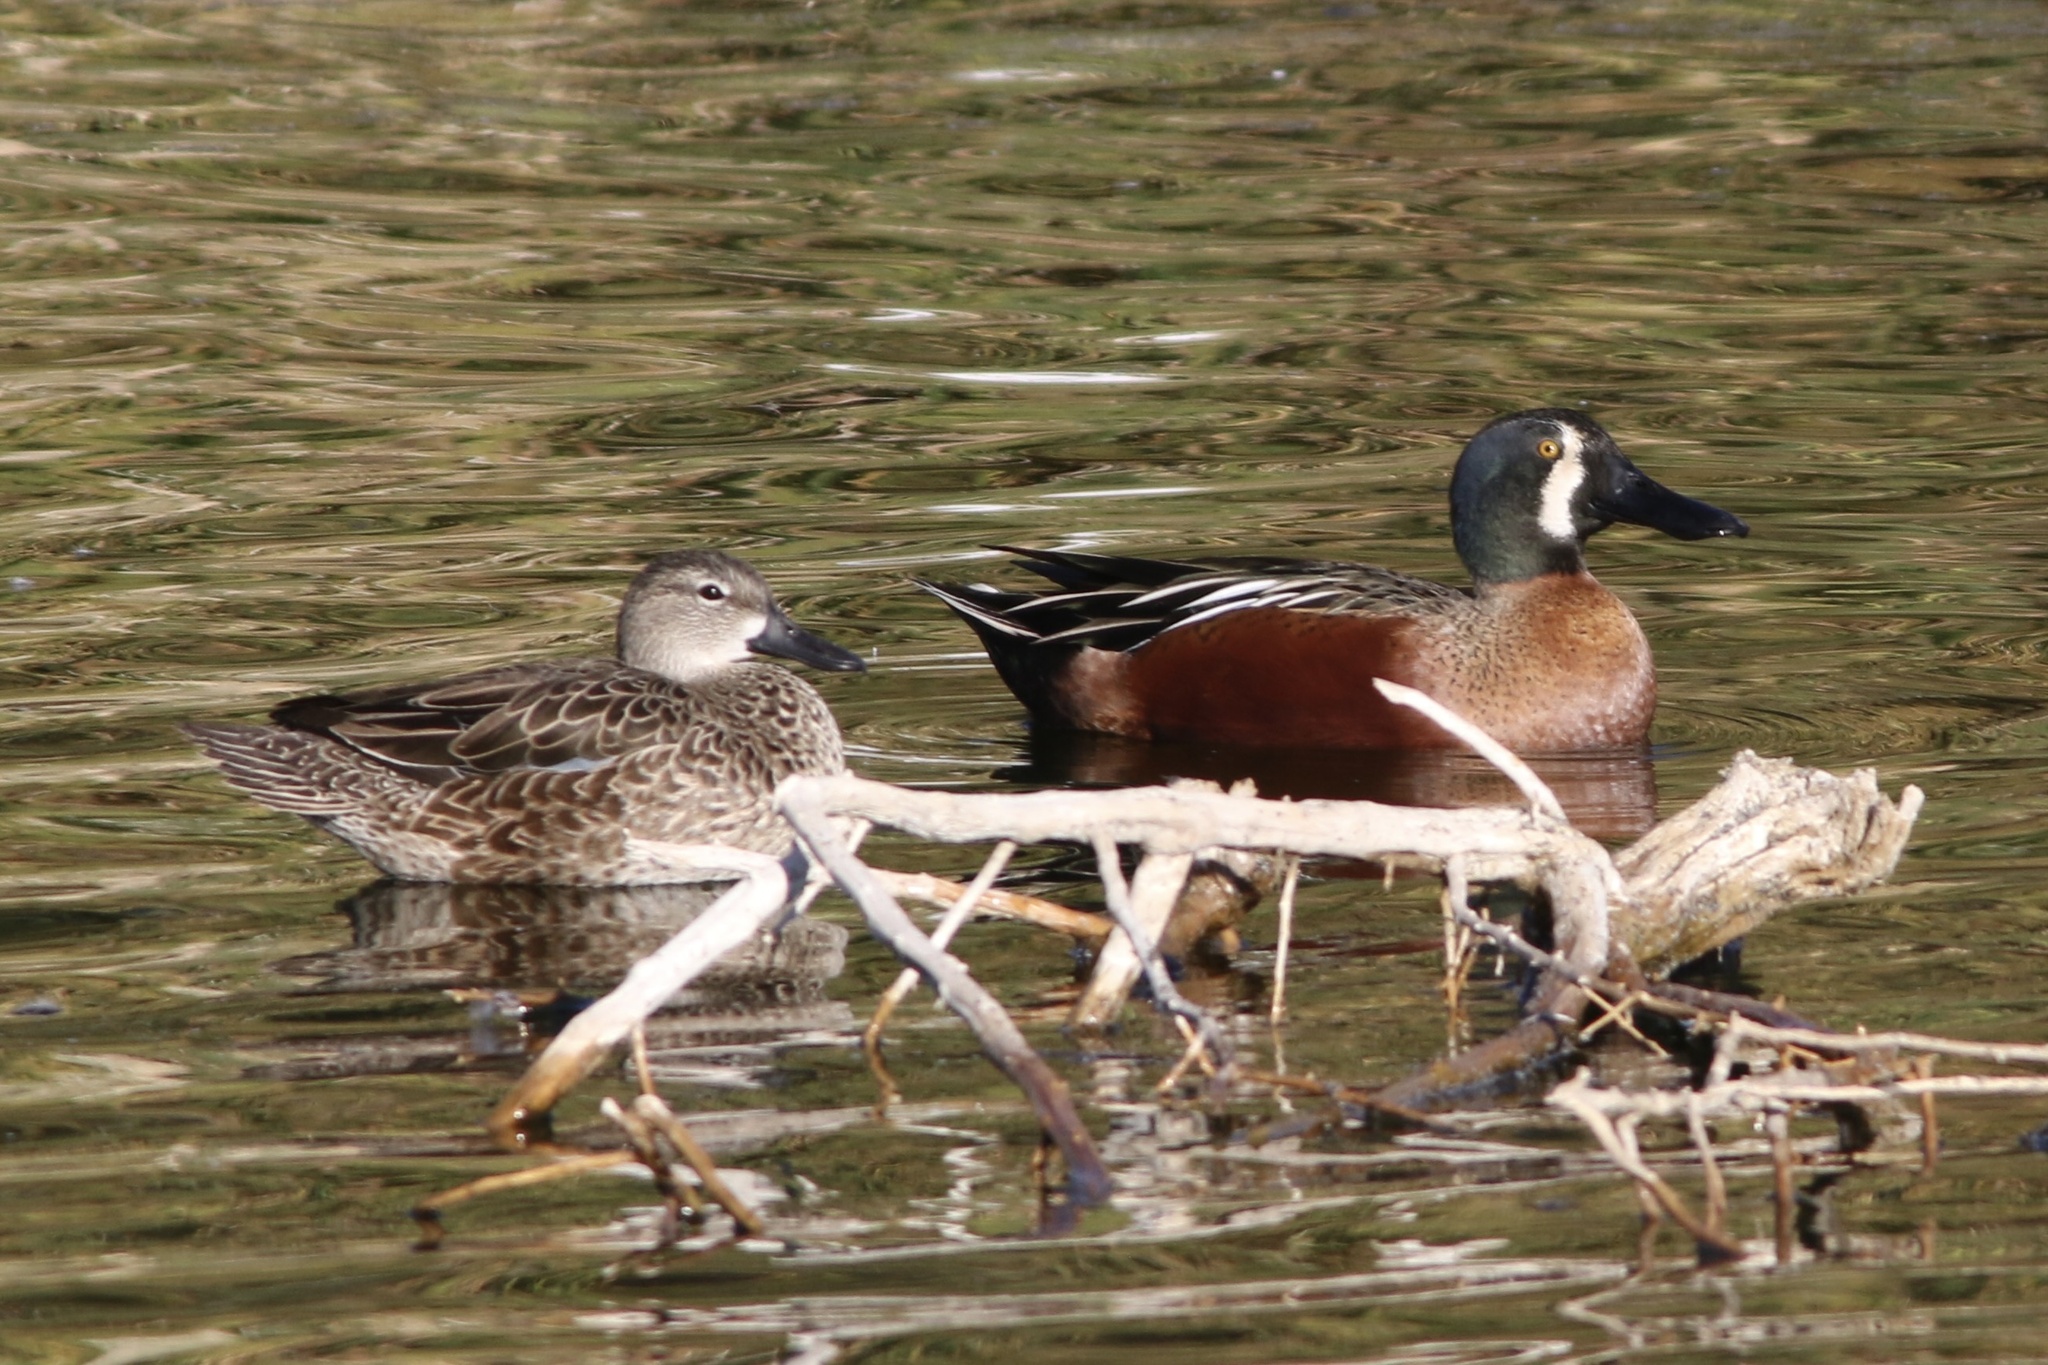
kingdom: Animalia
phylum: Chordata
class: Aves
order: Anseriformes
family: Anatidae
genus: Spatula
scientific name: Spatula
